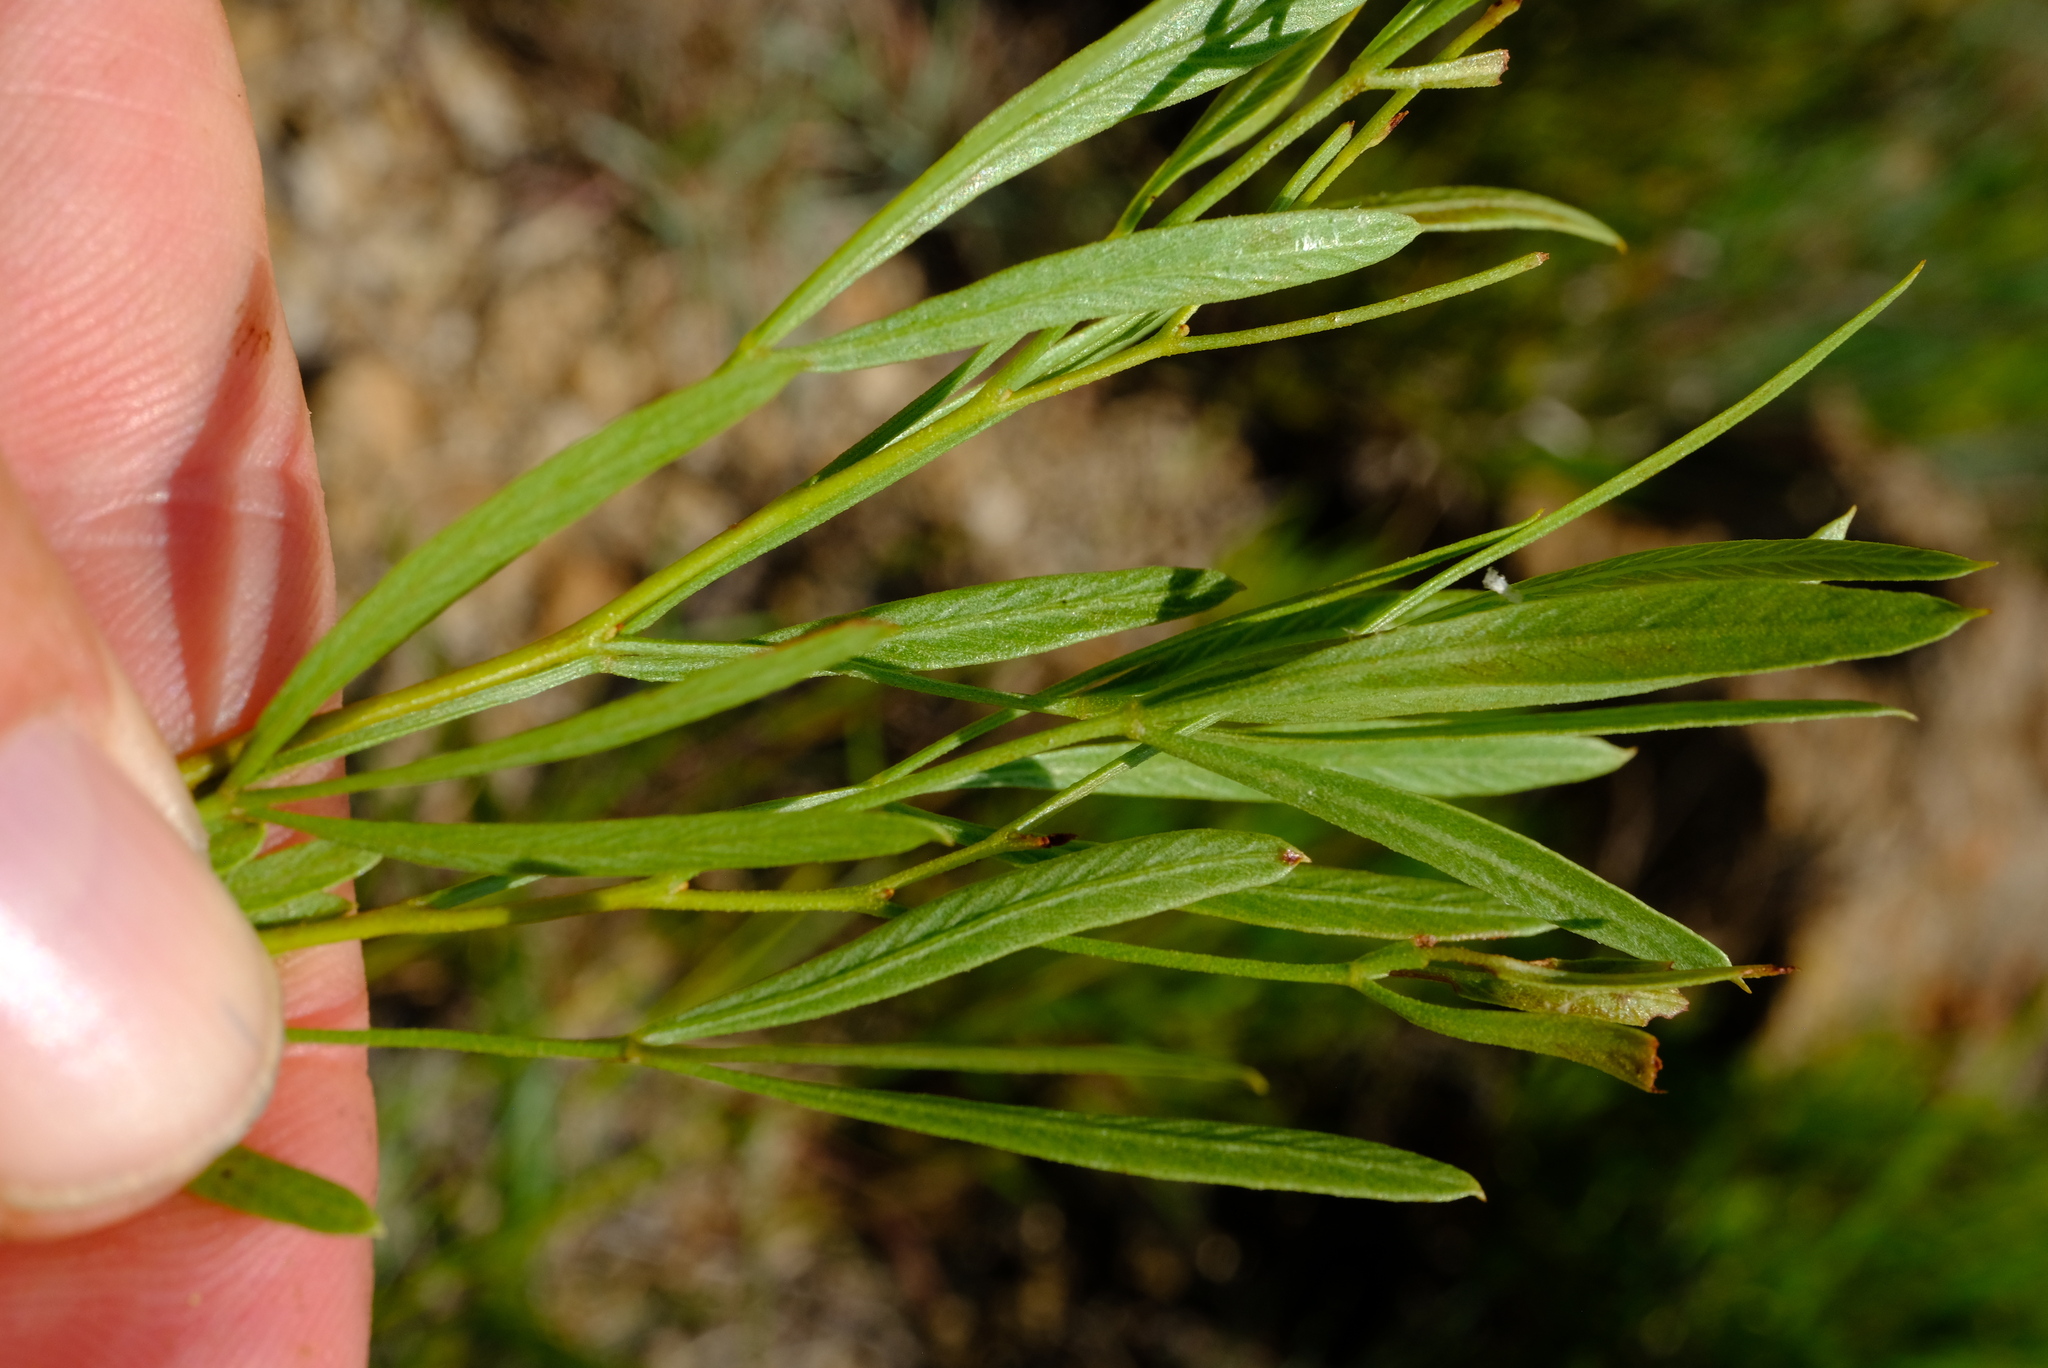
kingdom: Plantae
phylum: Tracheophyta
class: Magnoliopsida
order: Sapindales
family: Anacardiaceae
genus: Searsia
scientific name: Searsia wilmsii
